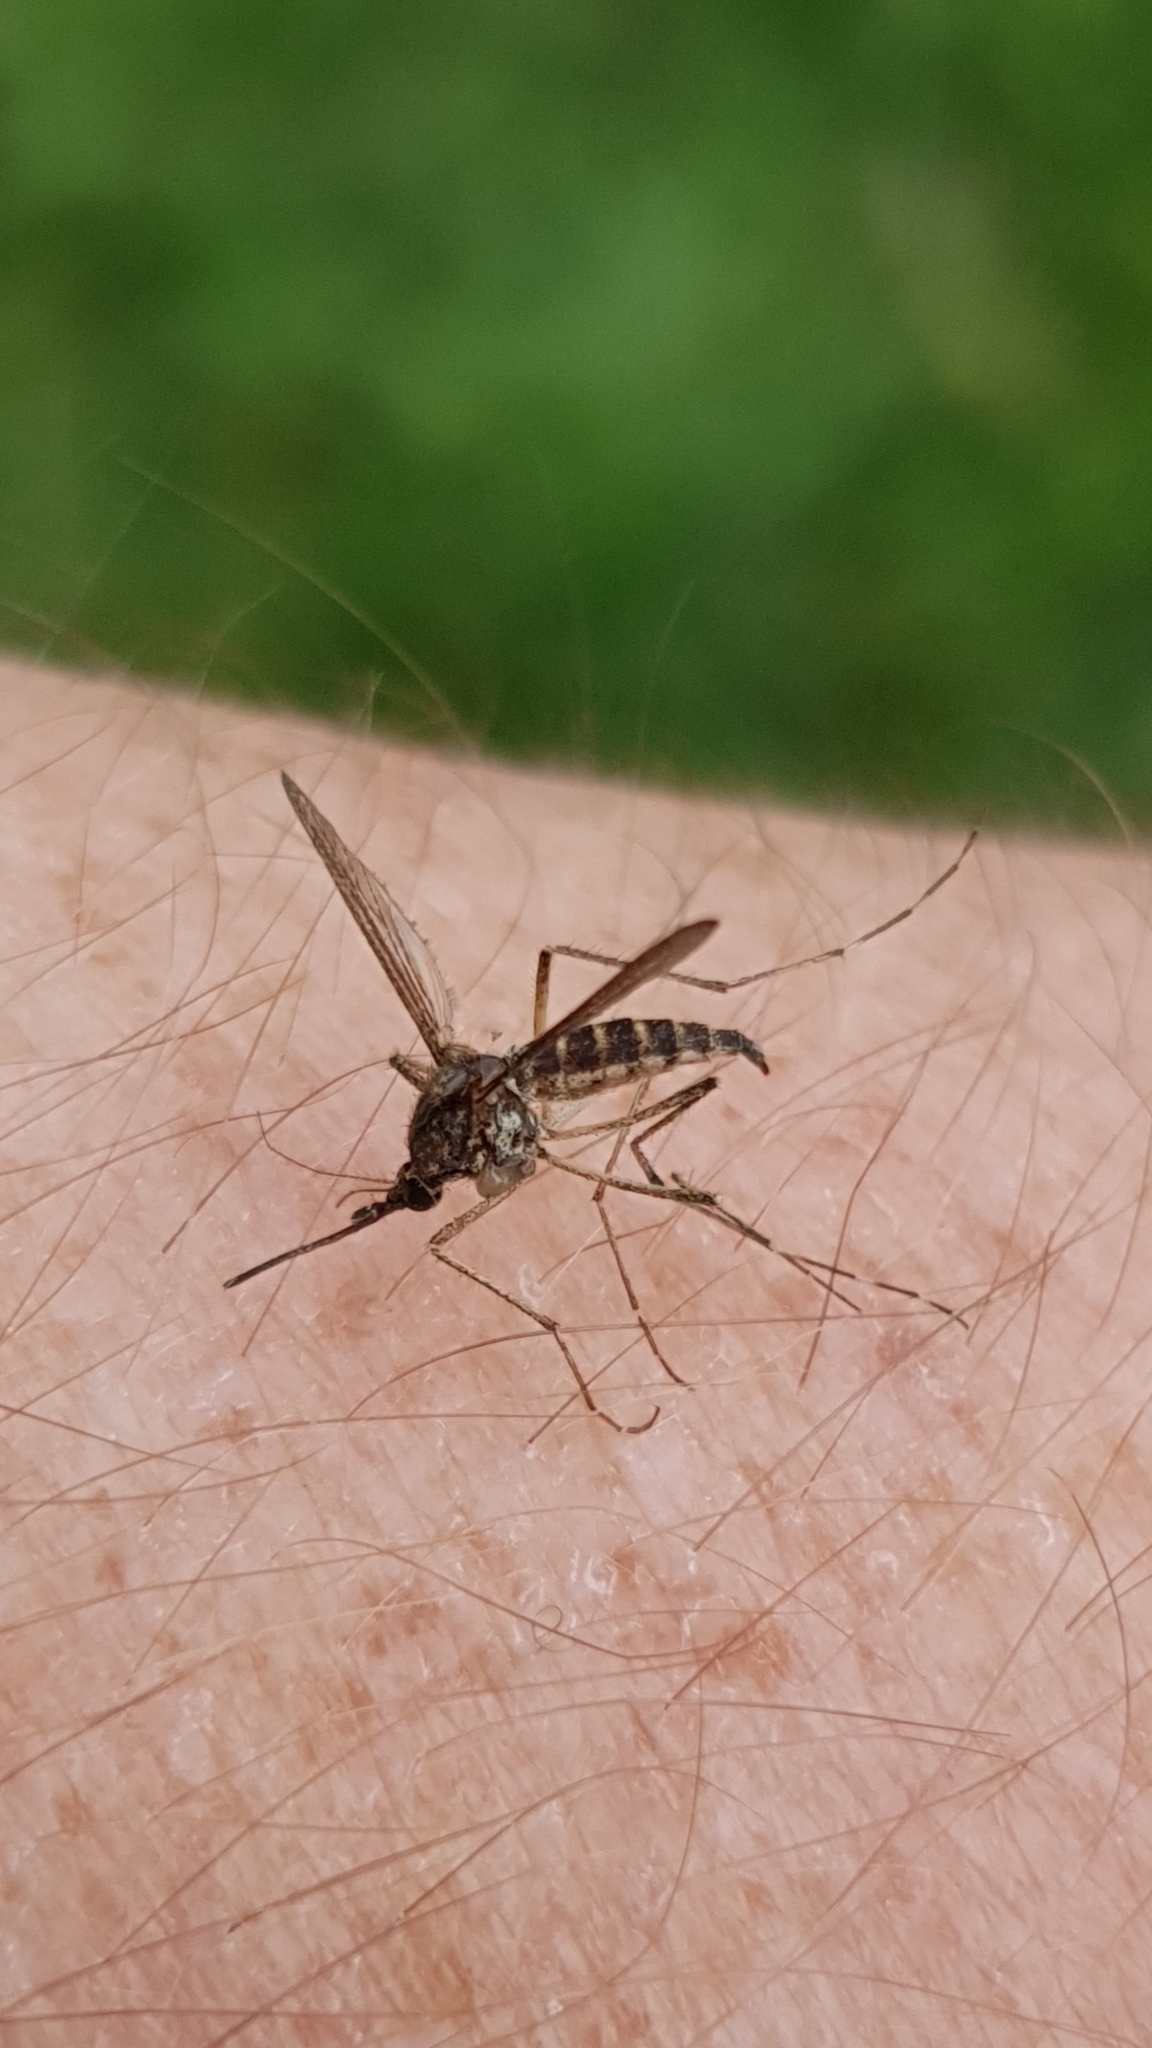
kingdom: Animalia
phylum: Arthropoda
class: Insecta
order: Diptera
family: Culicidae
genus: Aedes
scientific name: Aedes cantans
